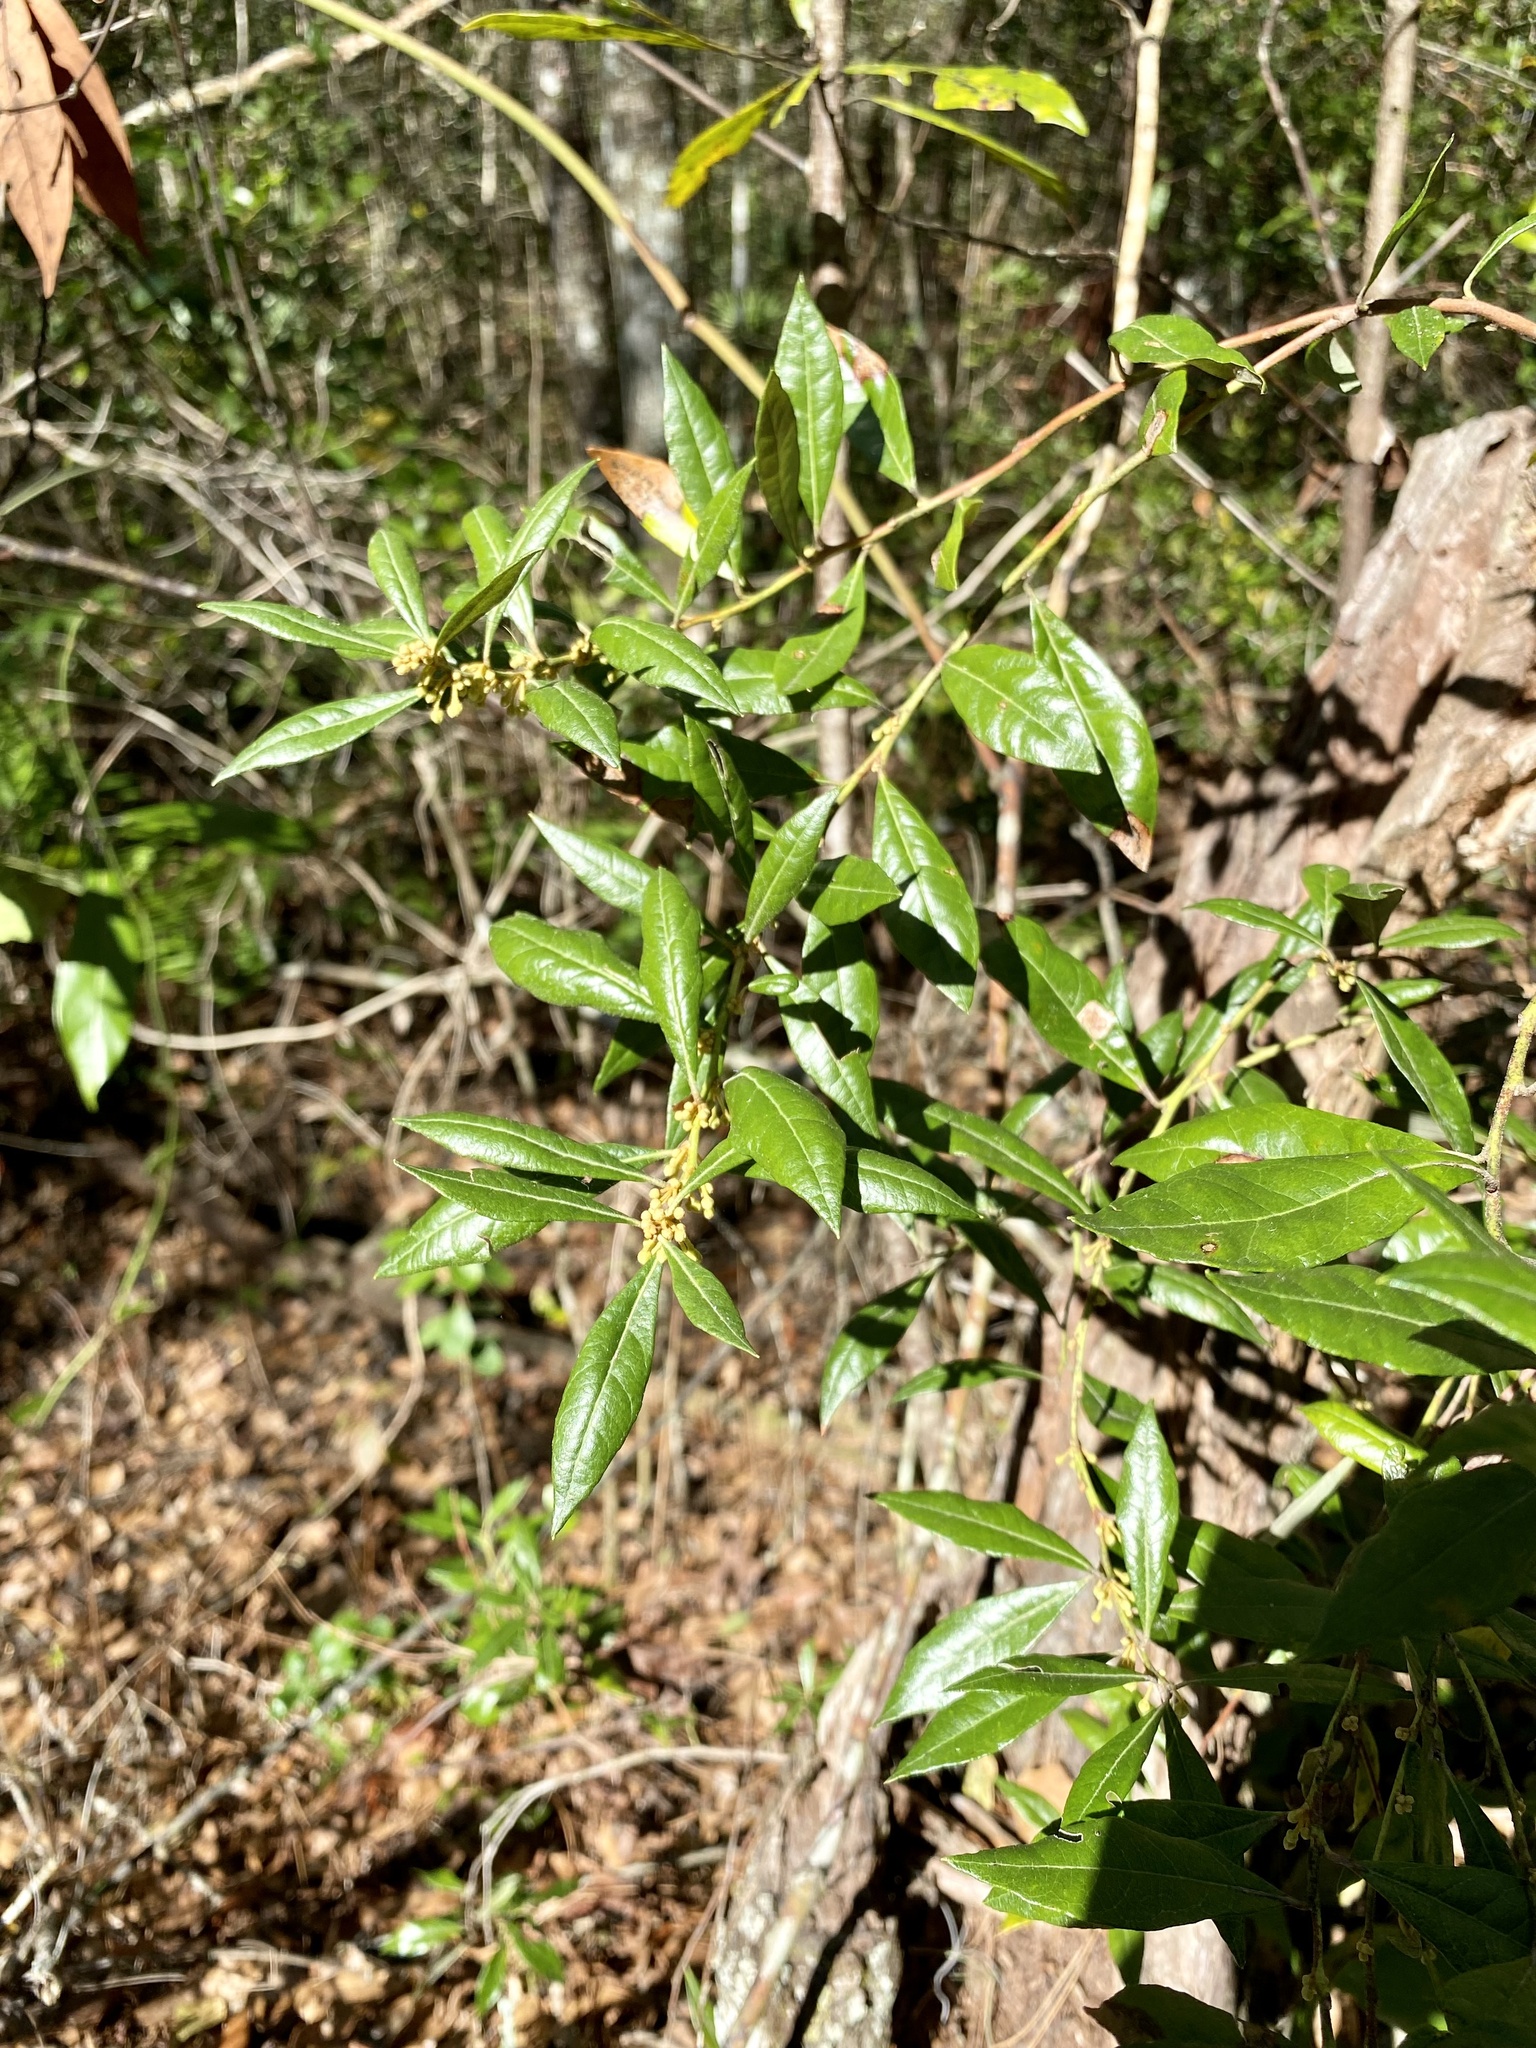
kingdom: Plantae
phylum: Tracheophyta
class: Magnoliopsida
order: Ericales
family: Ericaceae
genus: Lyonia
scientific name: Lyonia ferruginea
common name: Rusty lyonia
